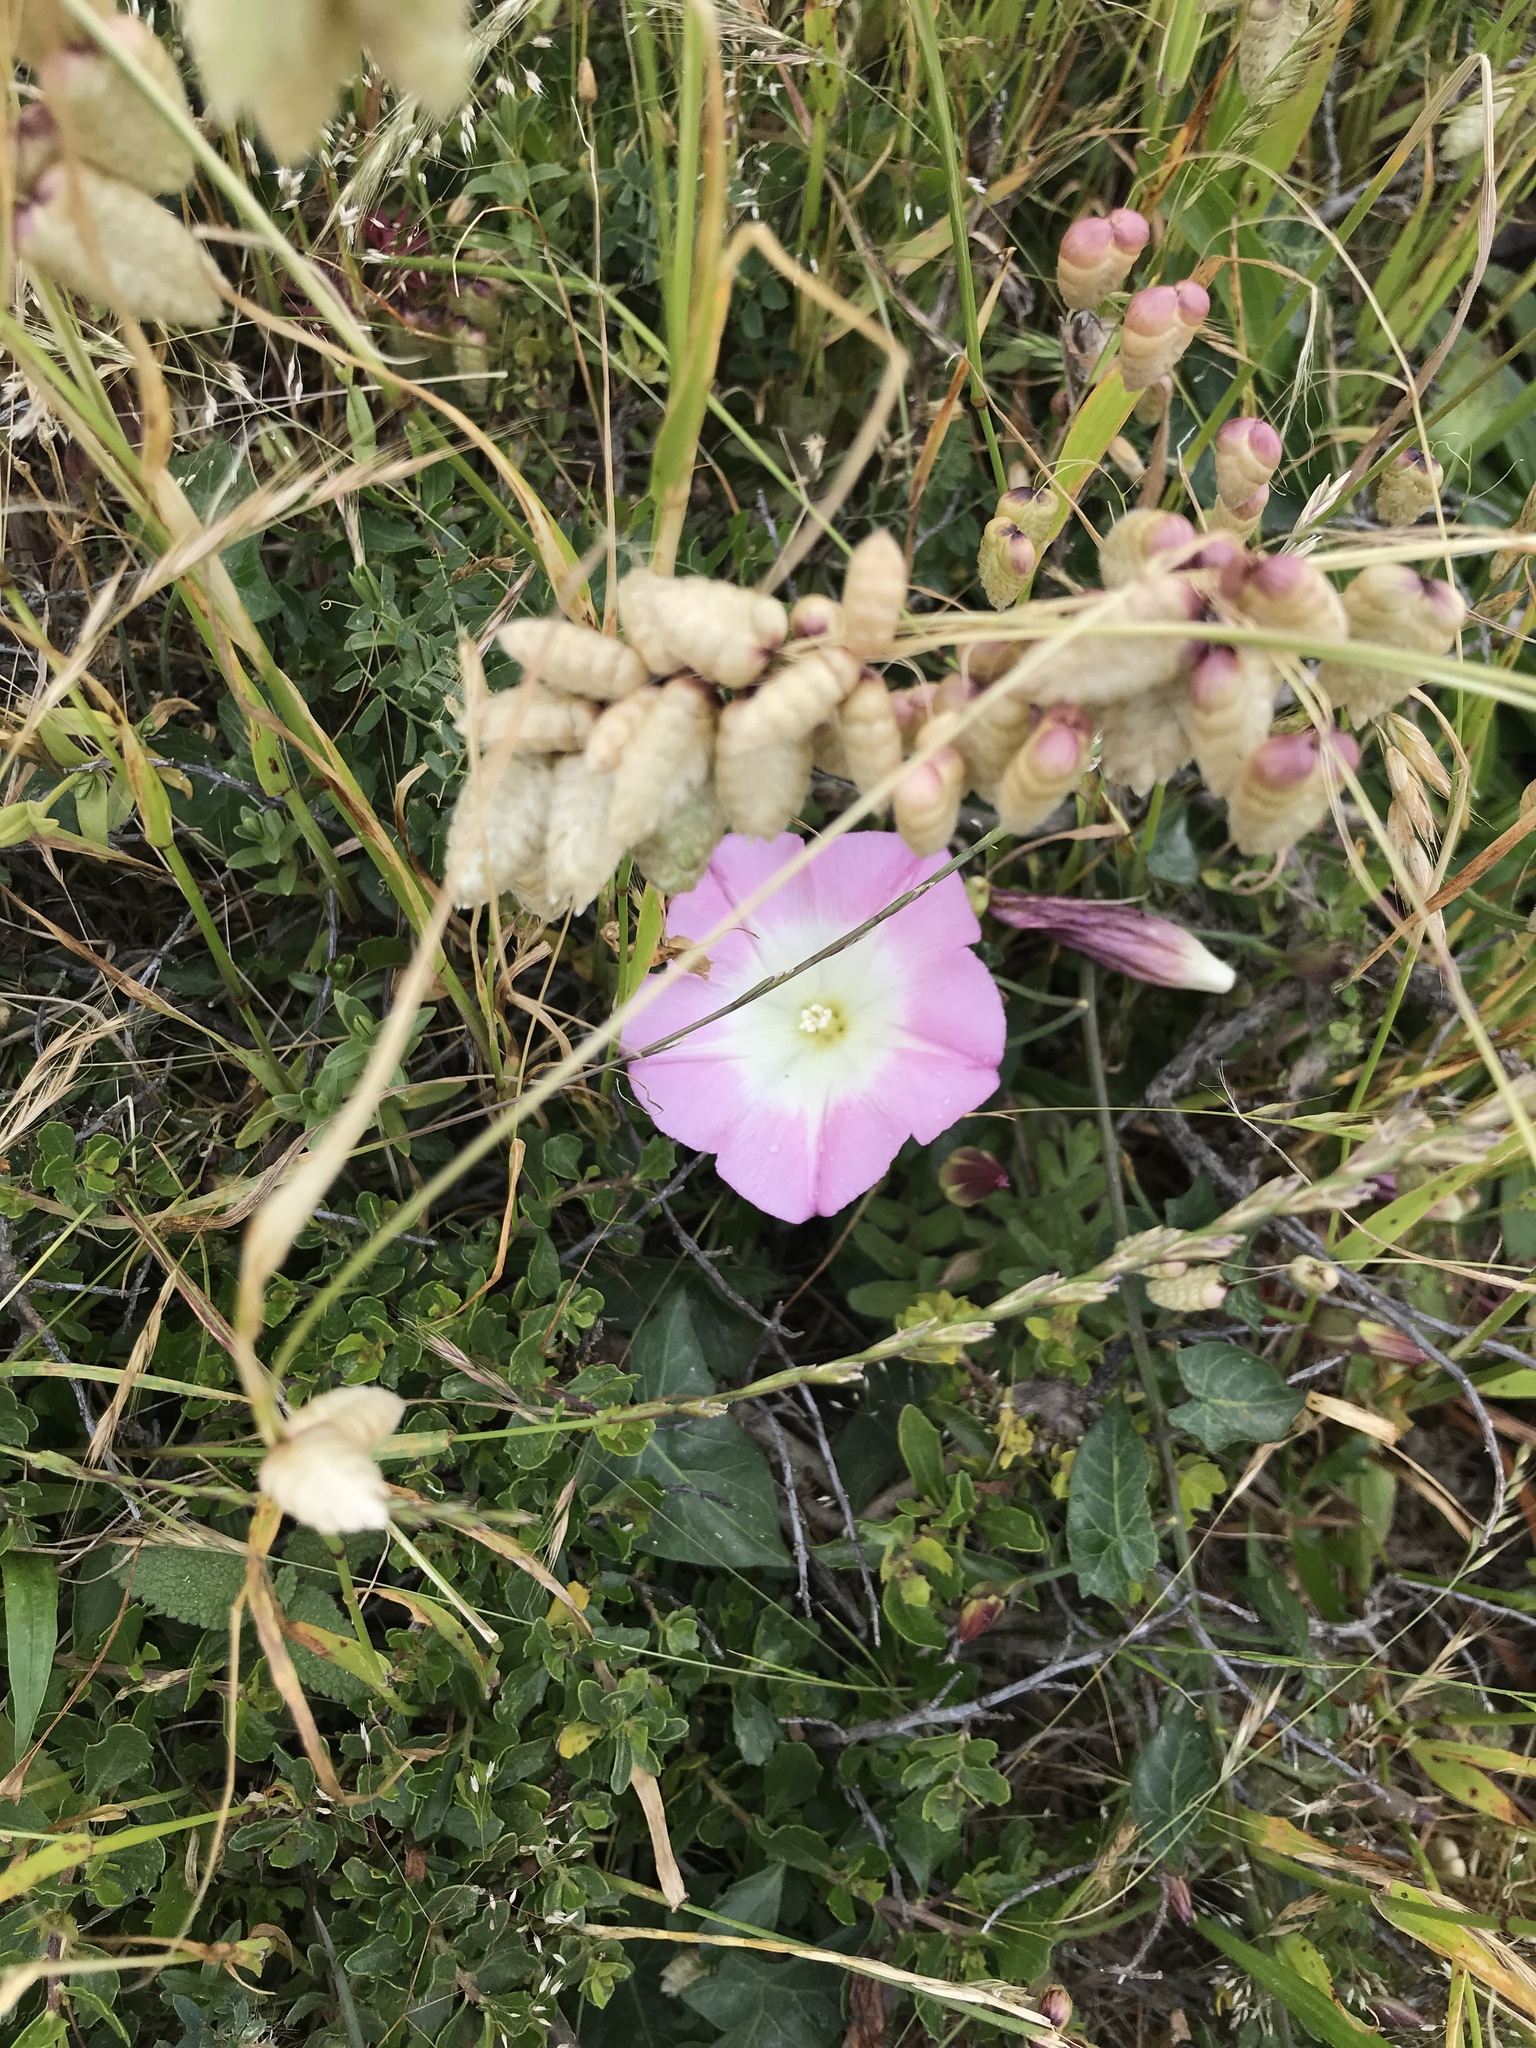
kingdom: Plantae
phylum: Tracheophyta
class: Magnoliopsida
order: Solanales
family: Convolvulaceae
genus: Calystegia
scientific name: Calystegia purpurata
